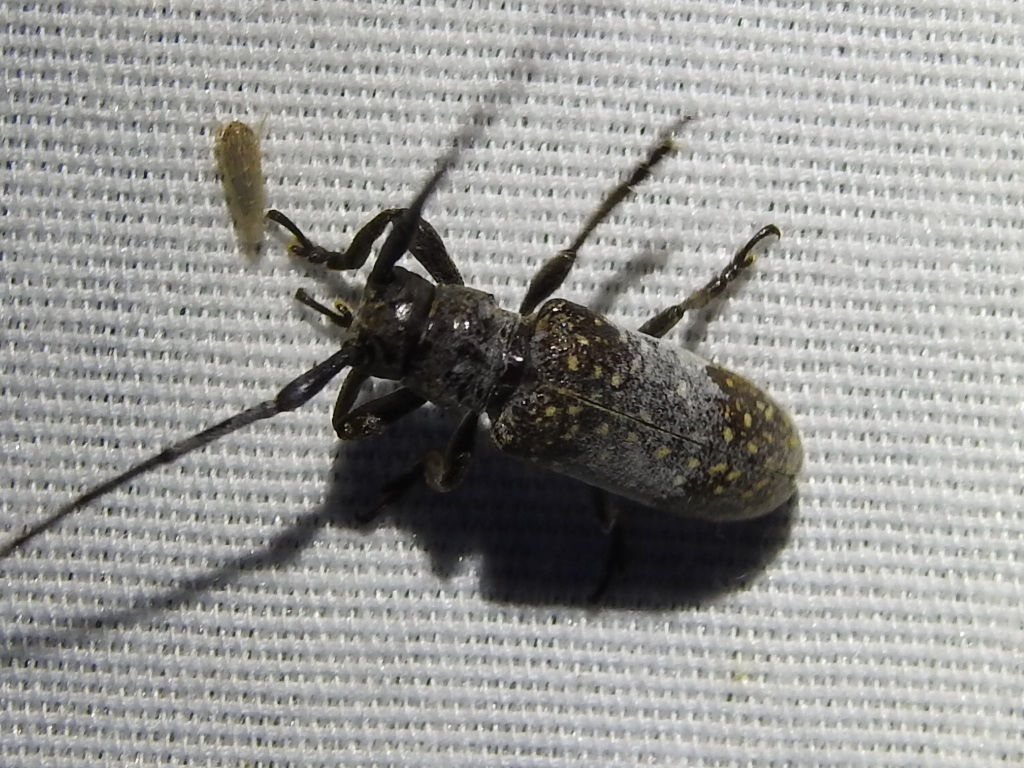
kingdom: Animalia
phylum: Arthropoda
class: Insecta
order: Coleoptera
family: Cerambycidae
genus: Oncideres
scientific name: Oncideres cingulata
